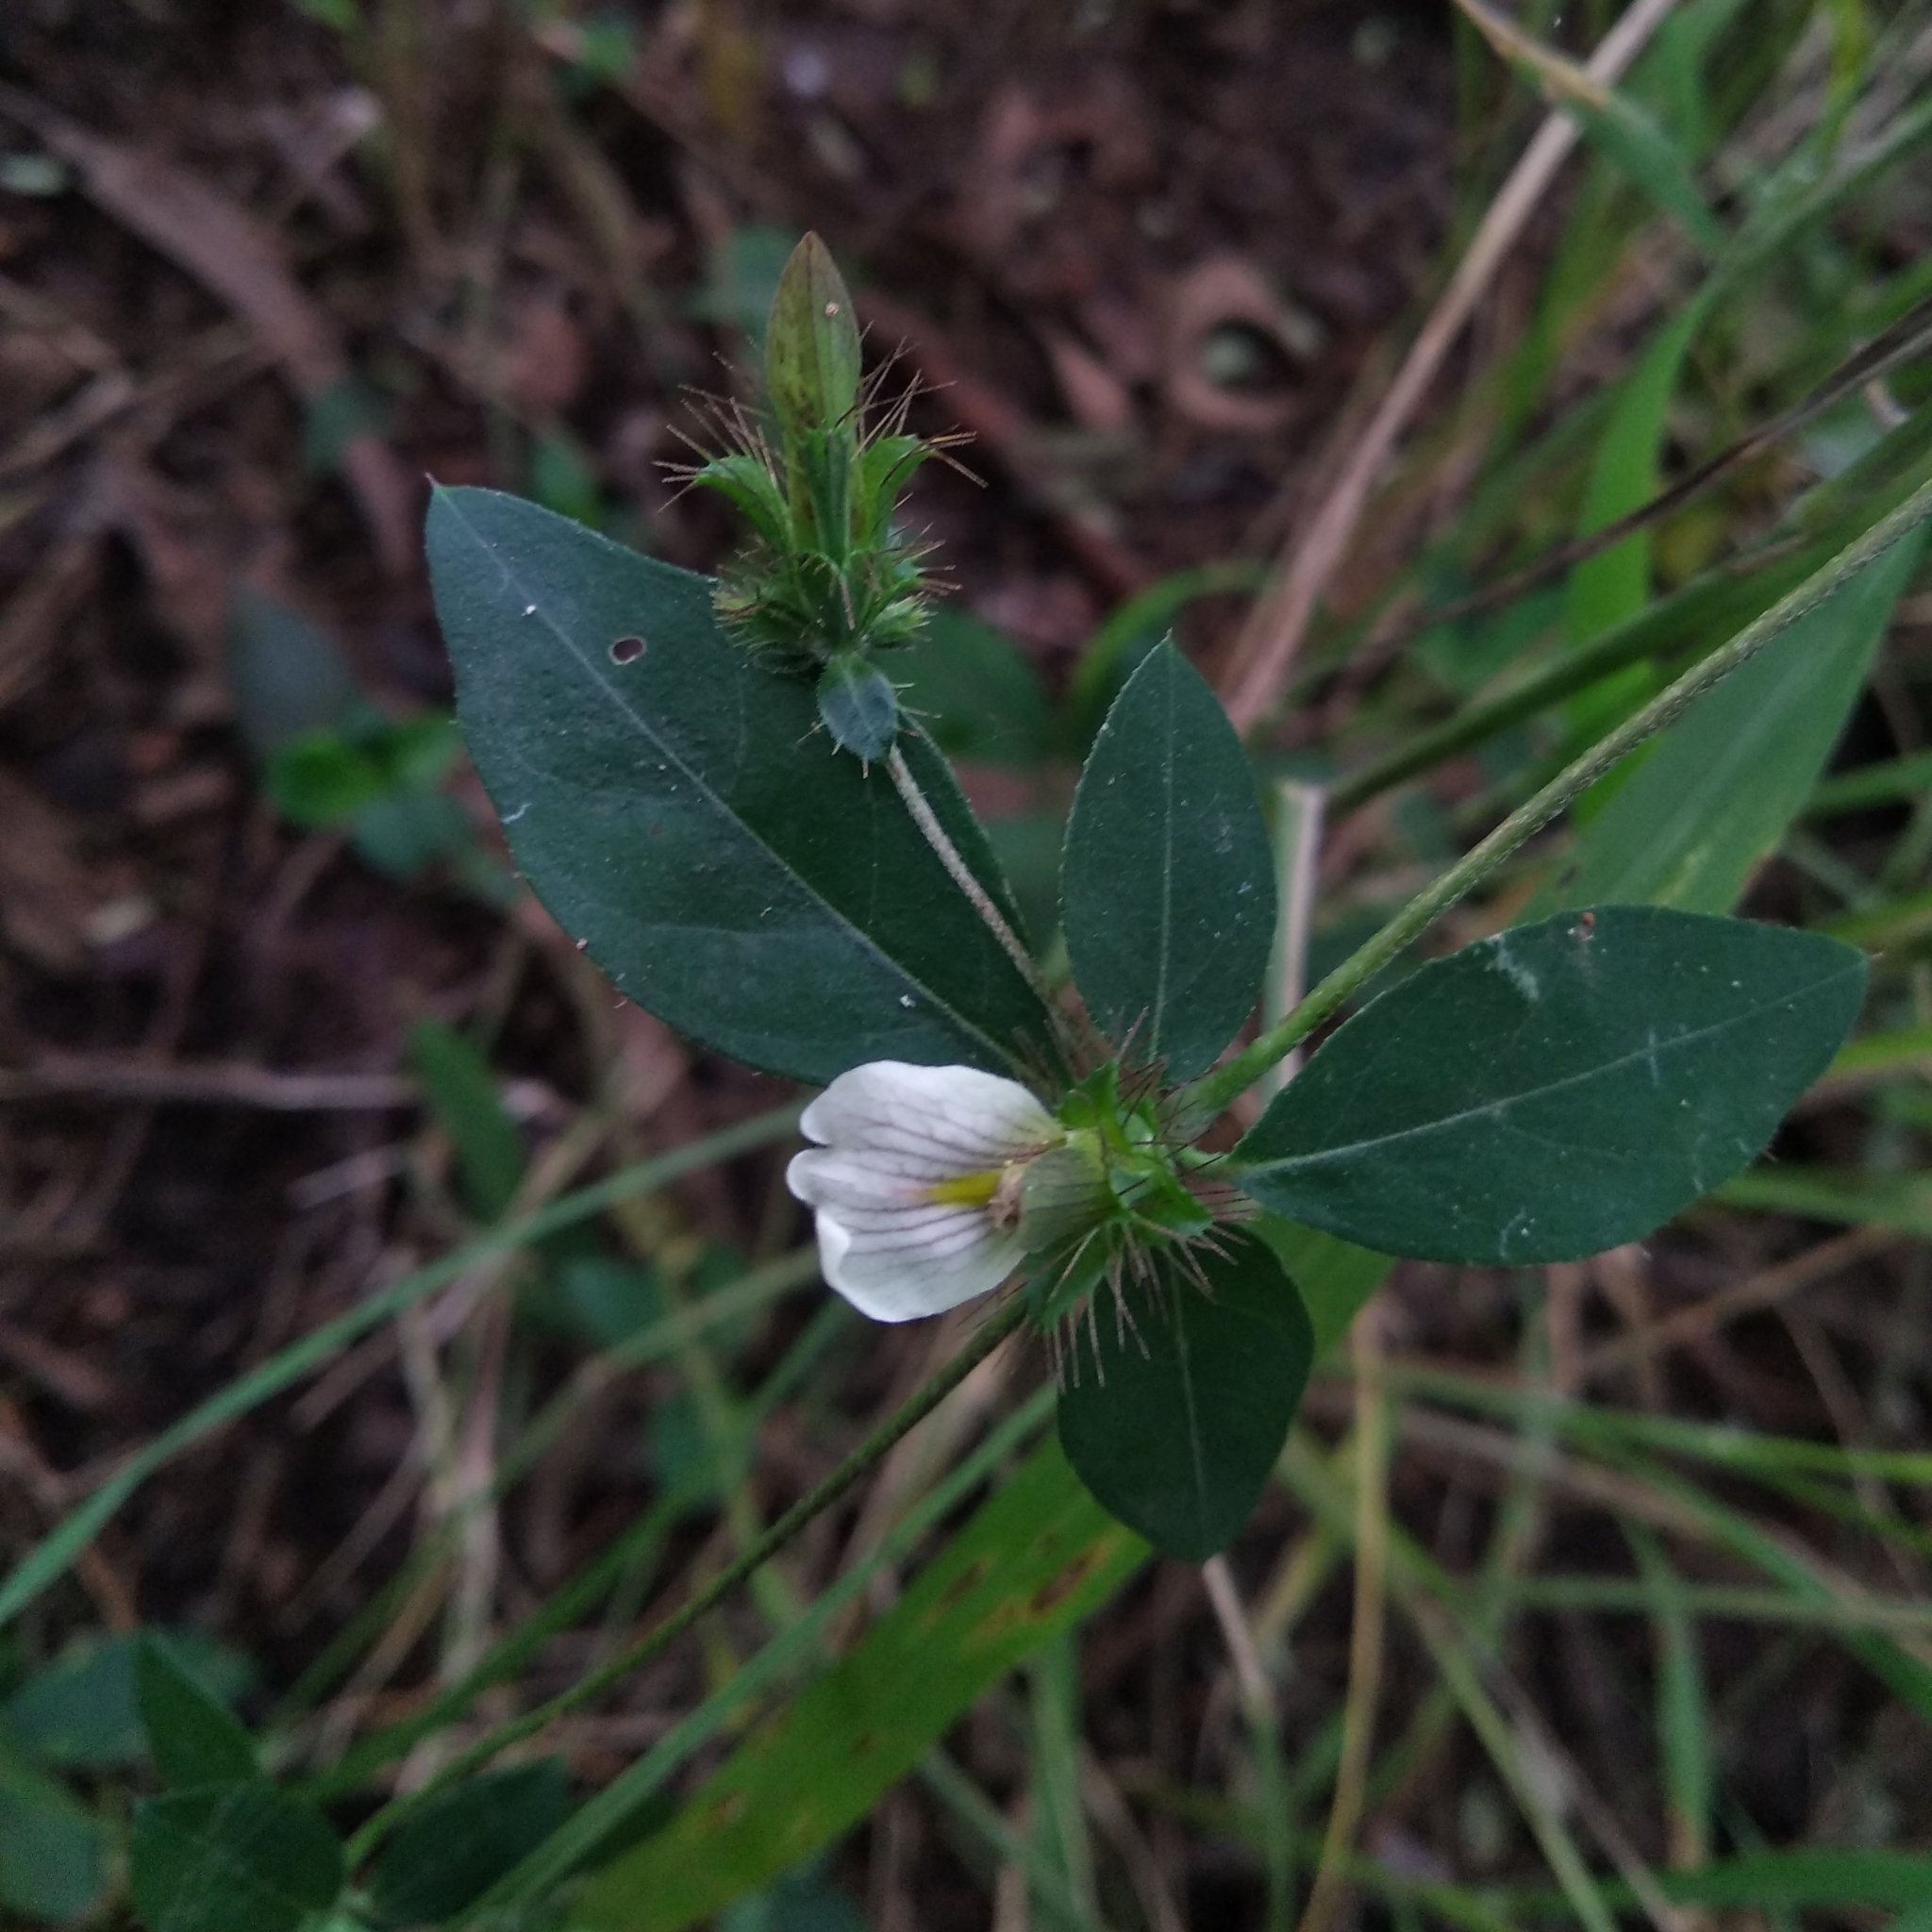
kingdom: Plantae
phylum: Tracheophyta
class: Magnoliopsida
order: Lamiales
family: Acanthaceae
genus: Blepharis
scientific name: Blepharis maderaspatensis
